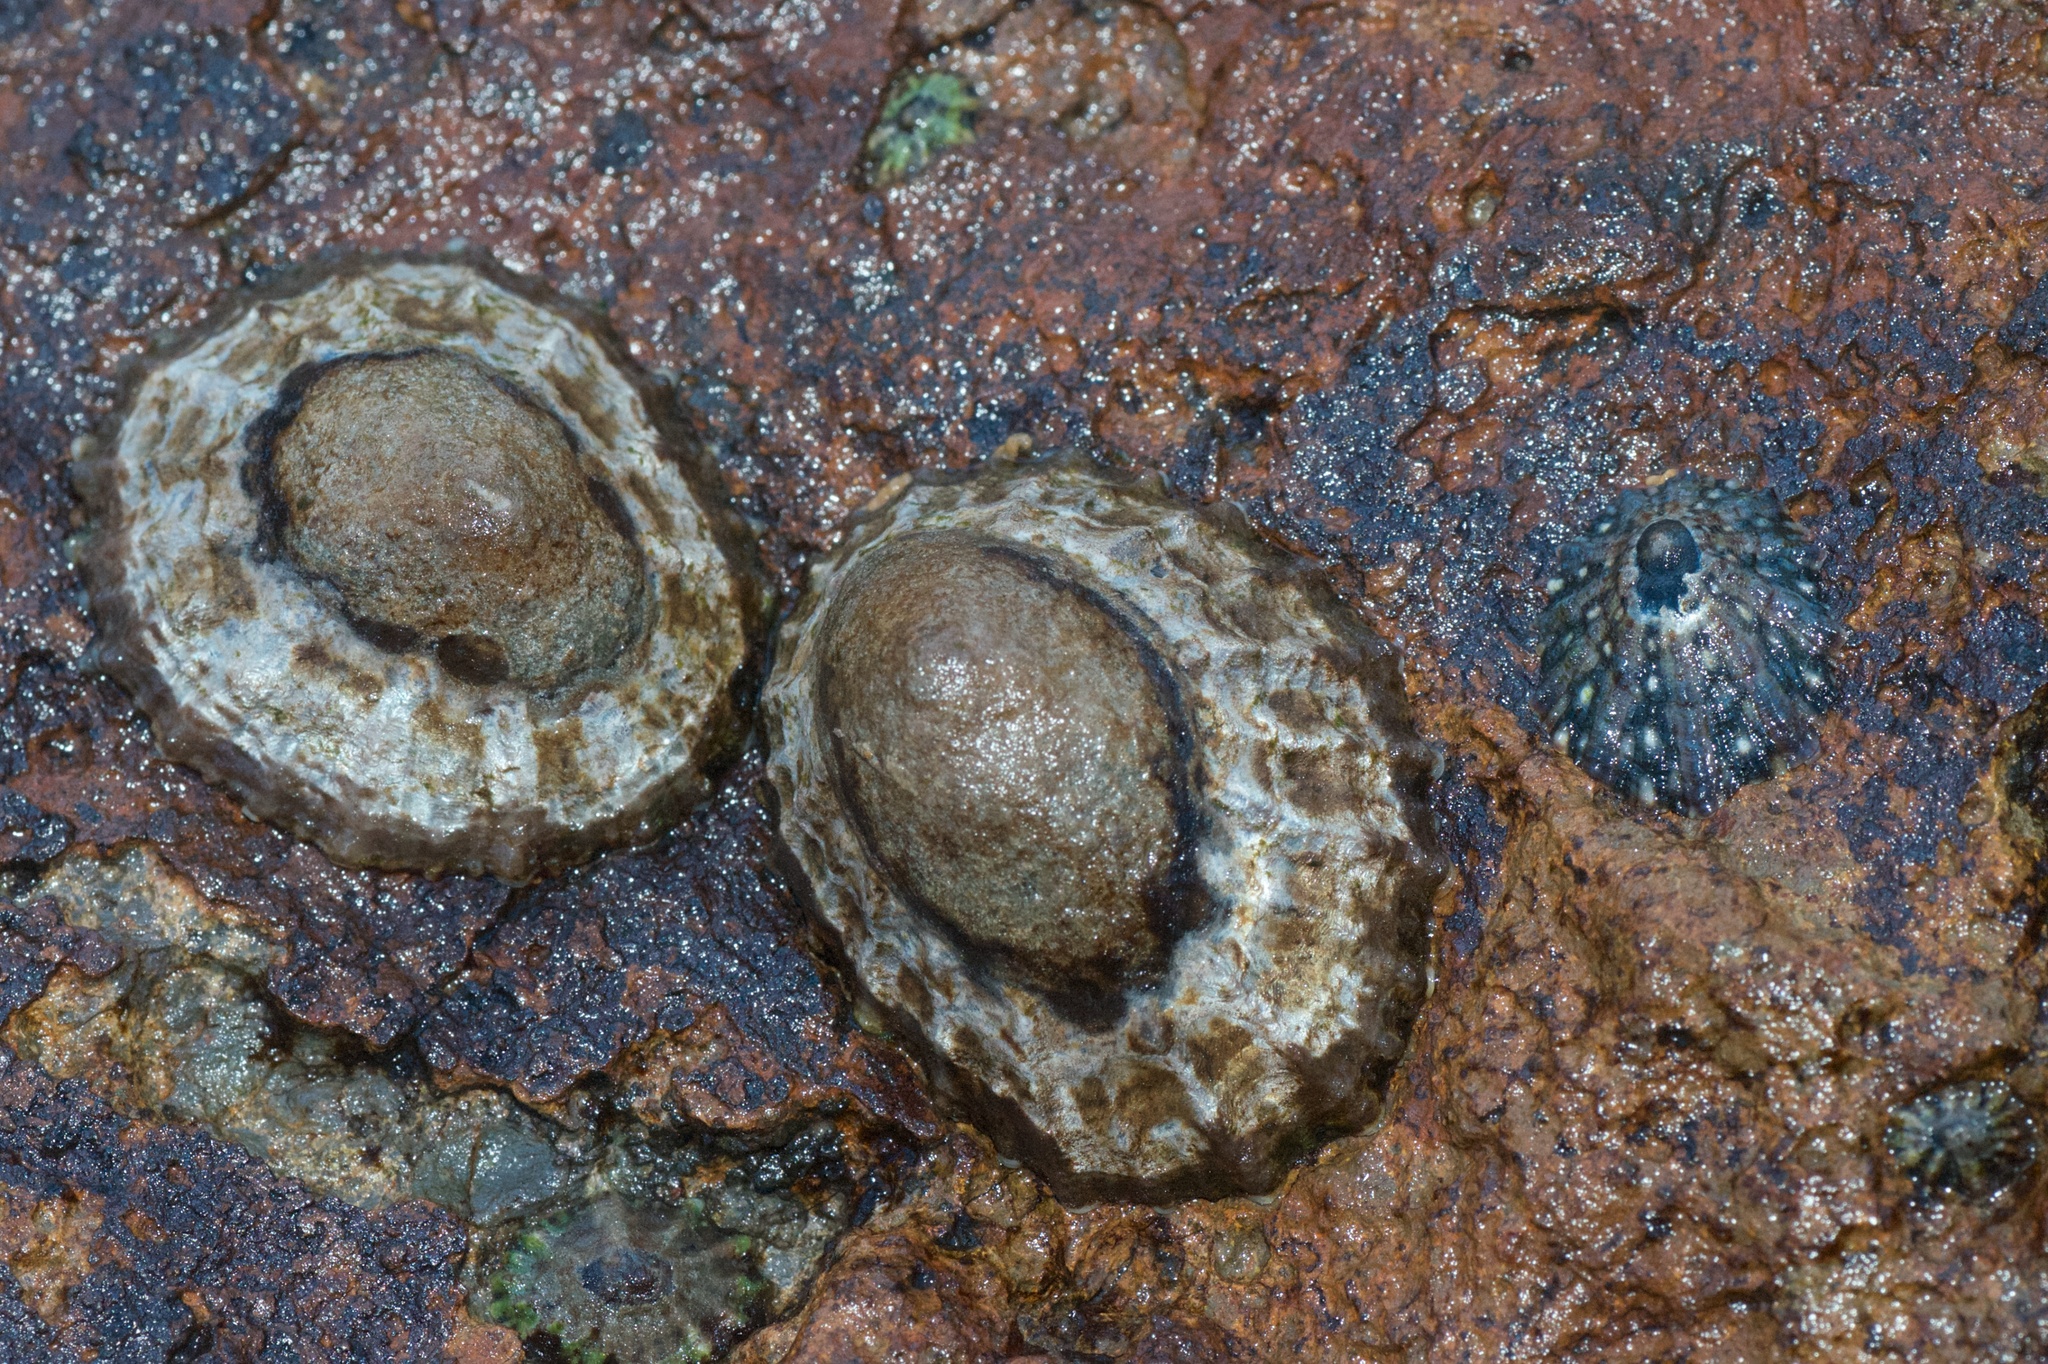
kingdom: Animalia
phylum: Mollusca
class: Gastropoda
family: Nacellidae
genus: Cellana
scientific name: Cellana ornata
